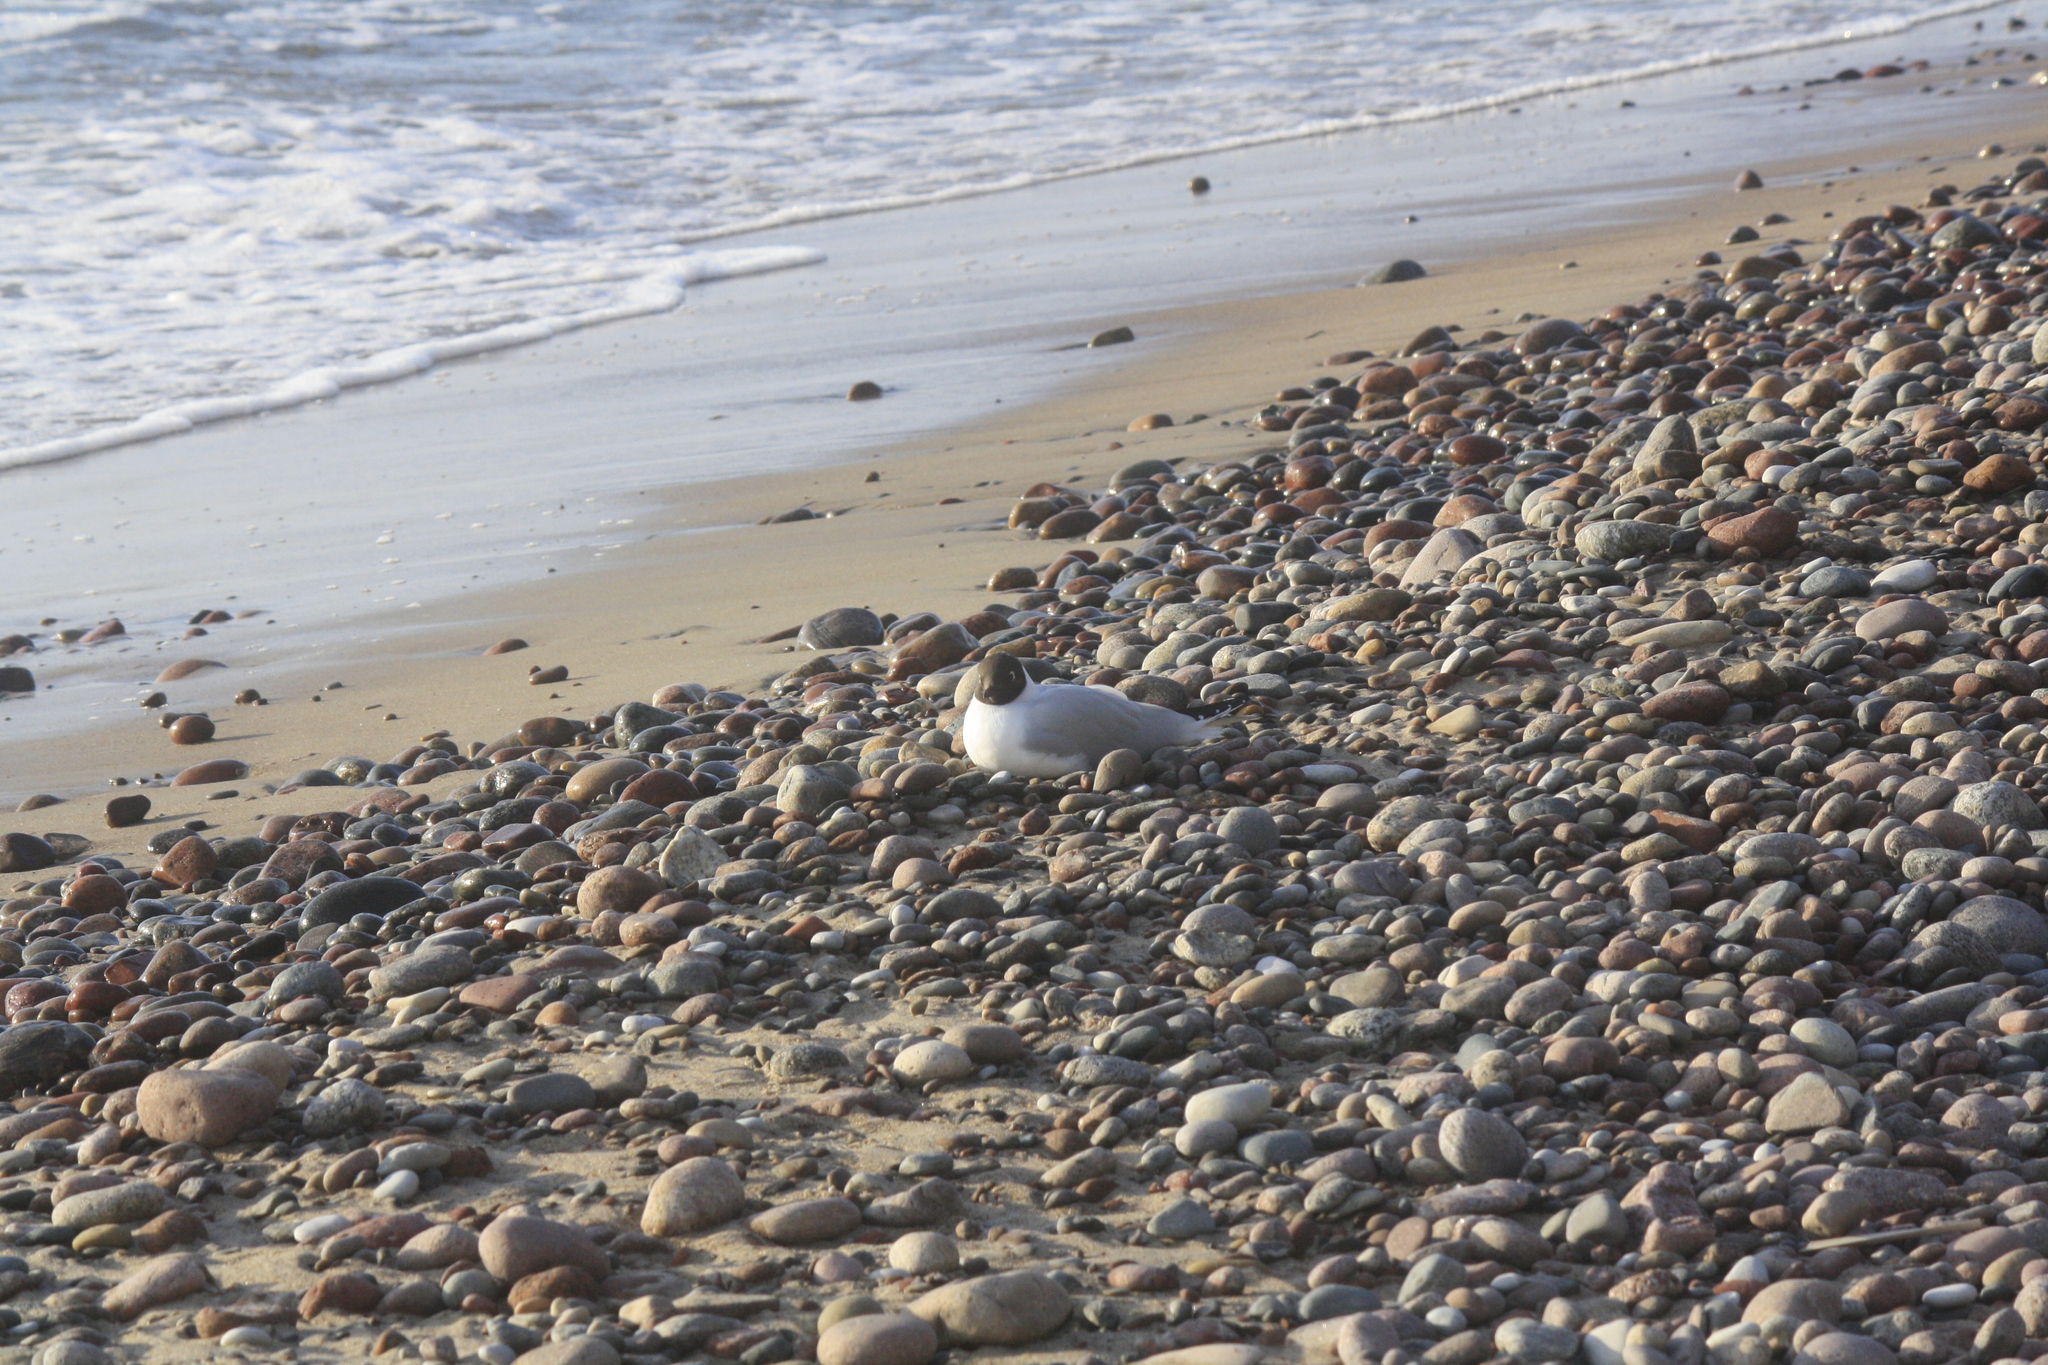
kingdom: Animalia
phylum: Chordata
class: Aves
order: Charadriiformes
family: Laridae
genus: Chroicocephalus
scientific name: Chroicocephalus ridibundus
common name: Black-headed gull
